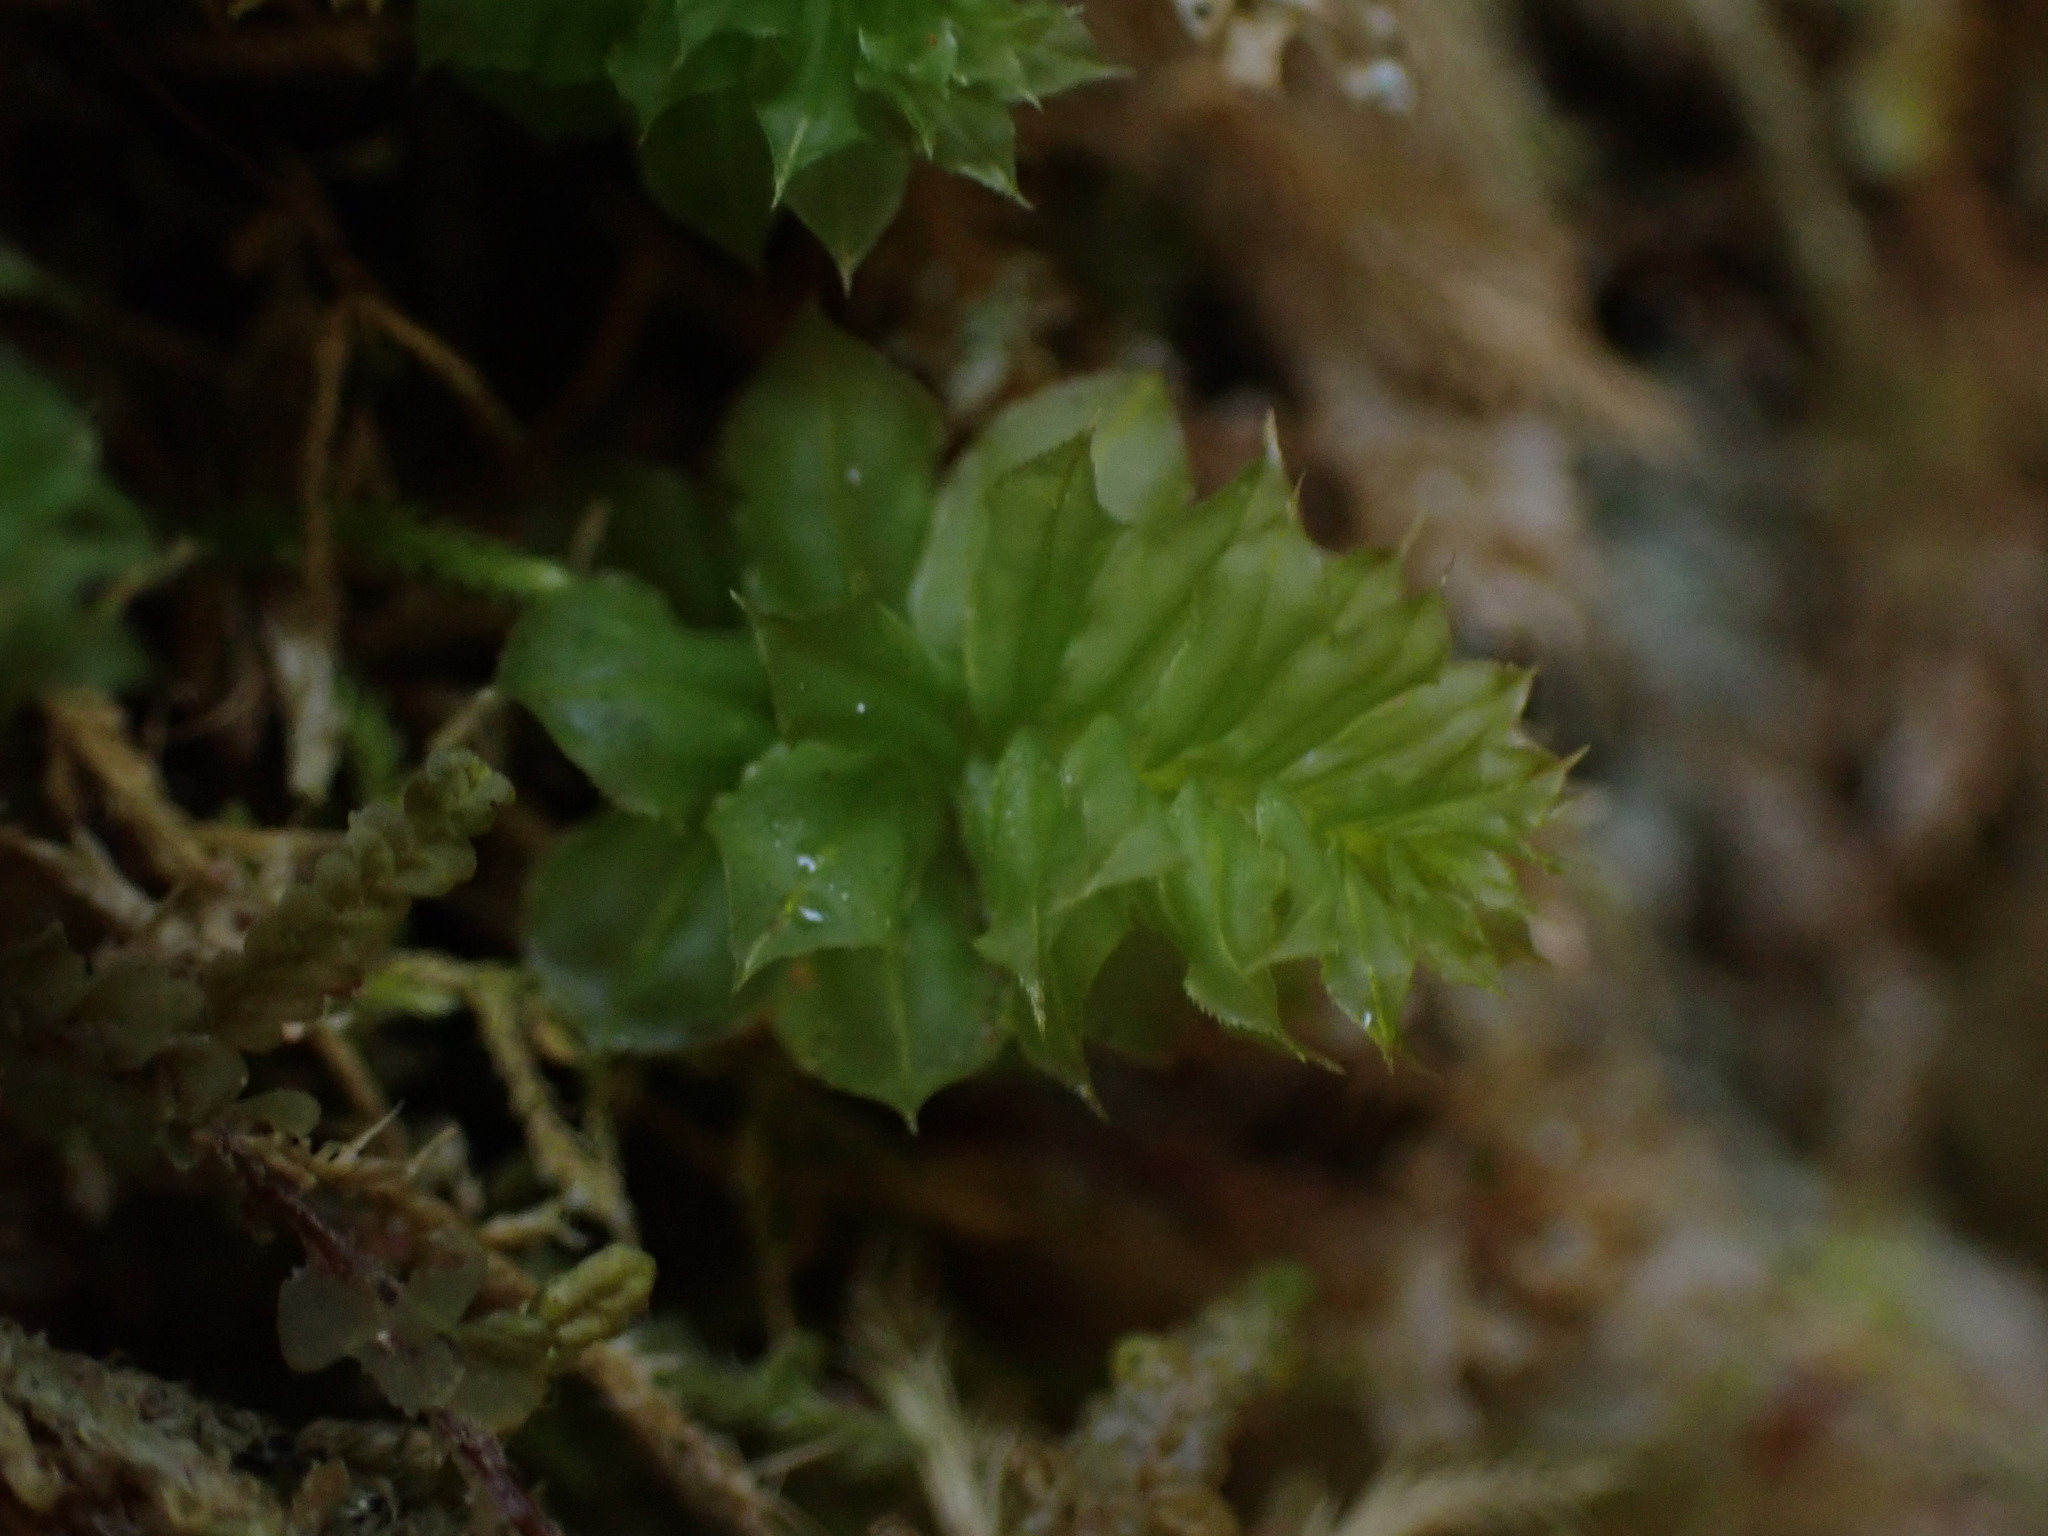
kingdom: Plantae
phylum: Bryophyta
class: Bryopsida
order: Bryales
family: Mniaceae
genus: Plagiomnium
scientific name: Plagiomnium venustum
